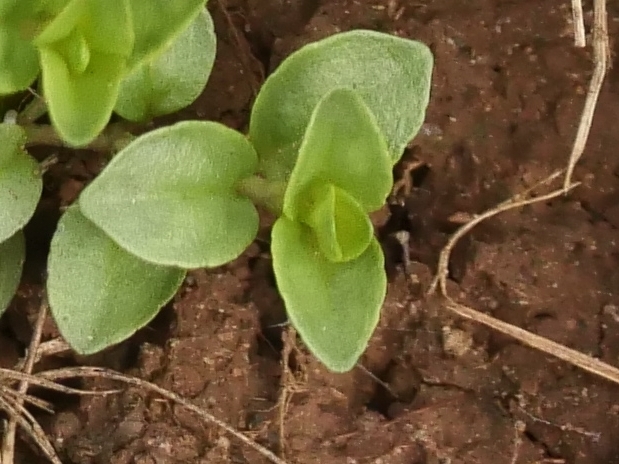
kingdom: Plantae
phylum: Tracheophyta
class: Magnoliopsida
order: Lamiales
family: Plantaginaceae
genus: Veronica
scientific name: Veronica serpyllifolia
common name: Thyme-leaved speedwell
